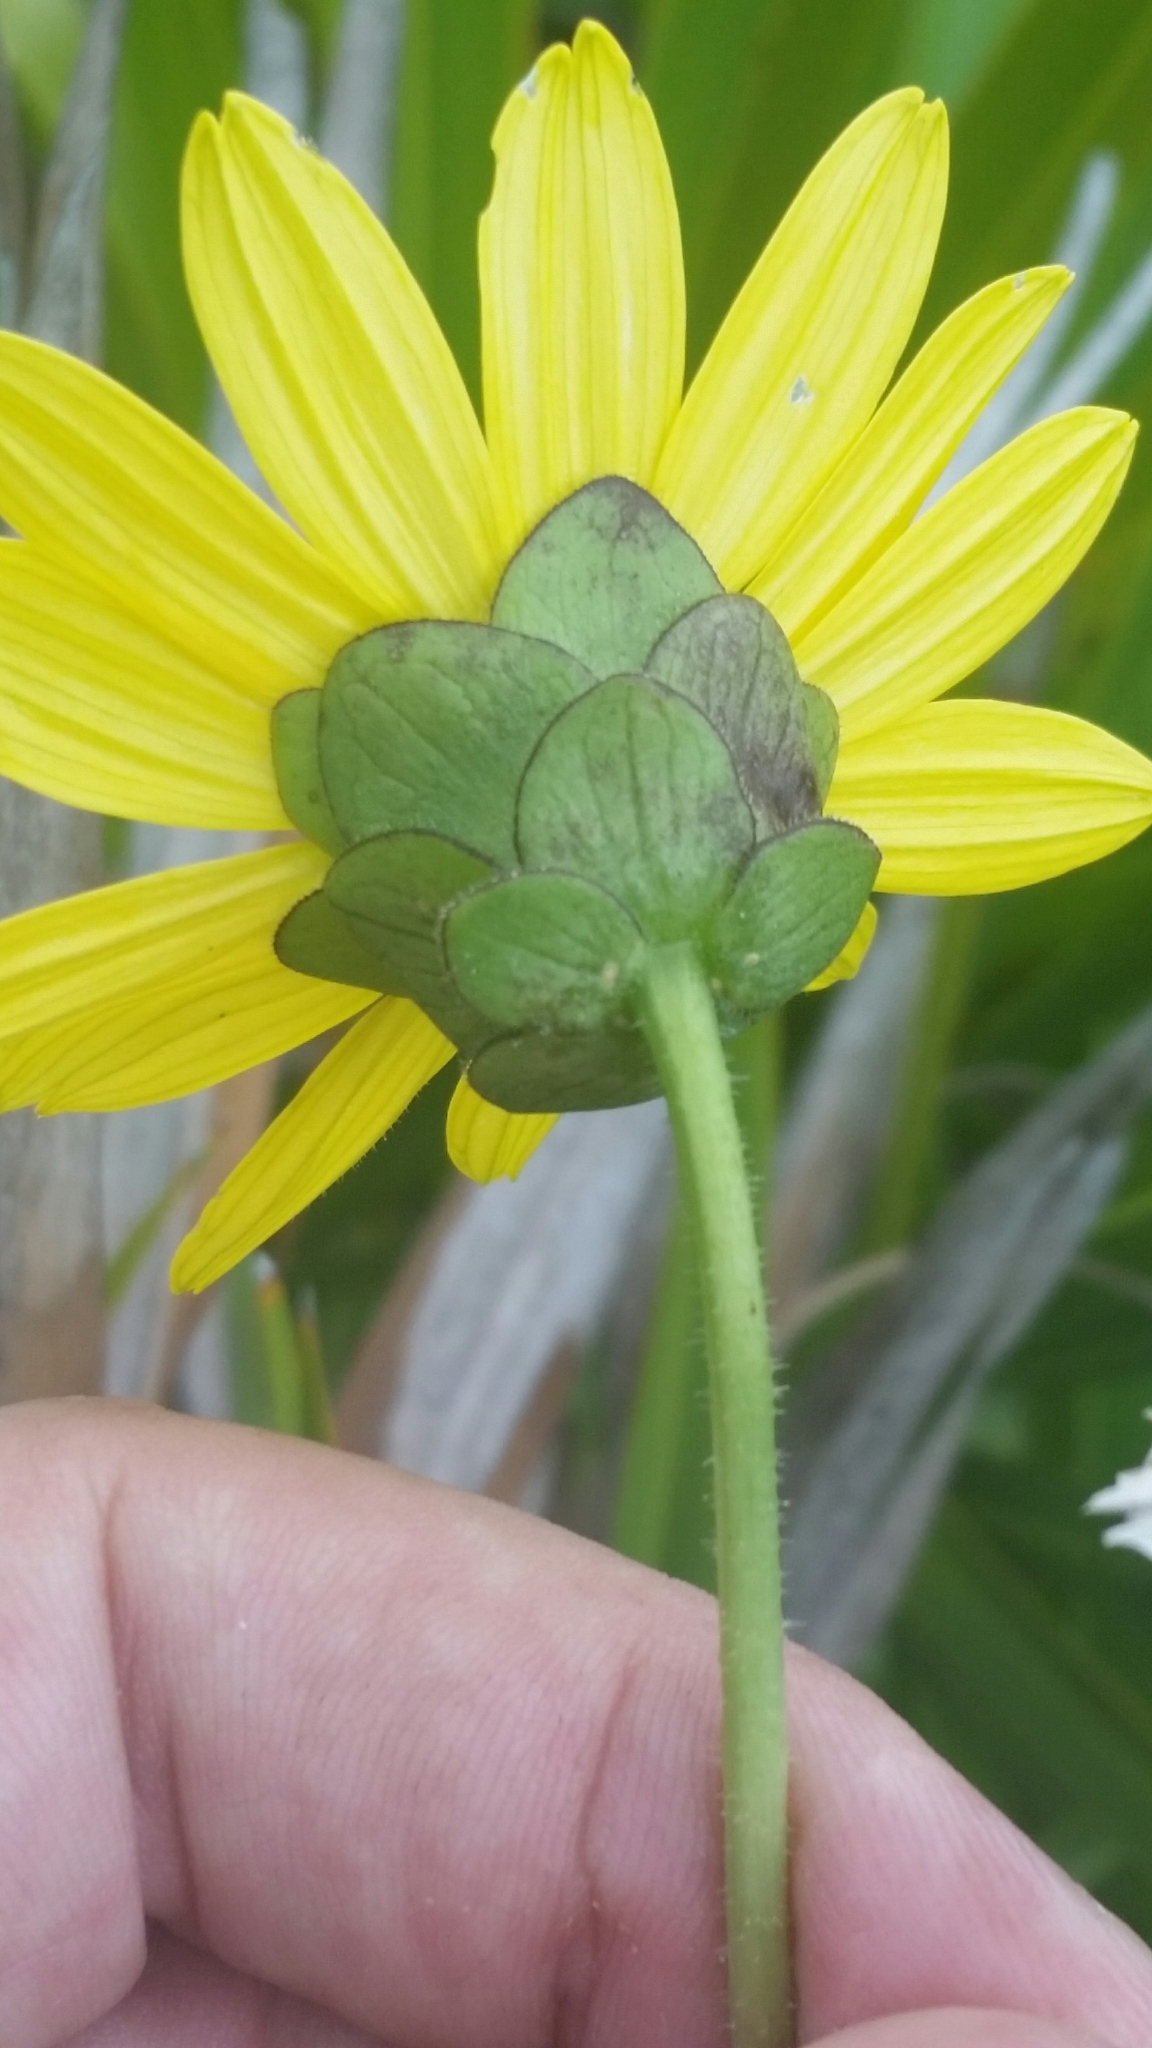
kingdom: Plantae
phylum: Tracheophyta
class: Magnoliopsida
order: Asterales
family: Asteraceae
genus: Silphium
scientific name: Silphium asteriscus
